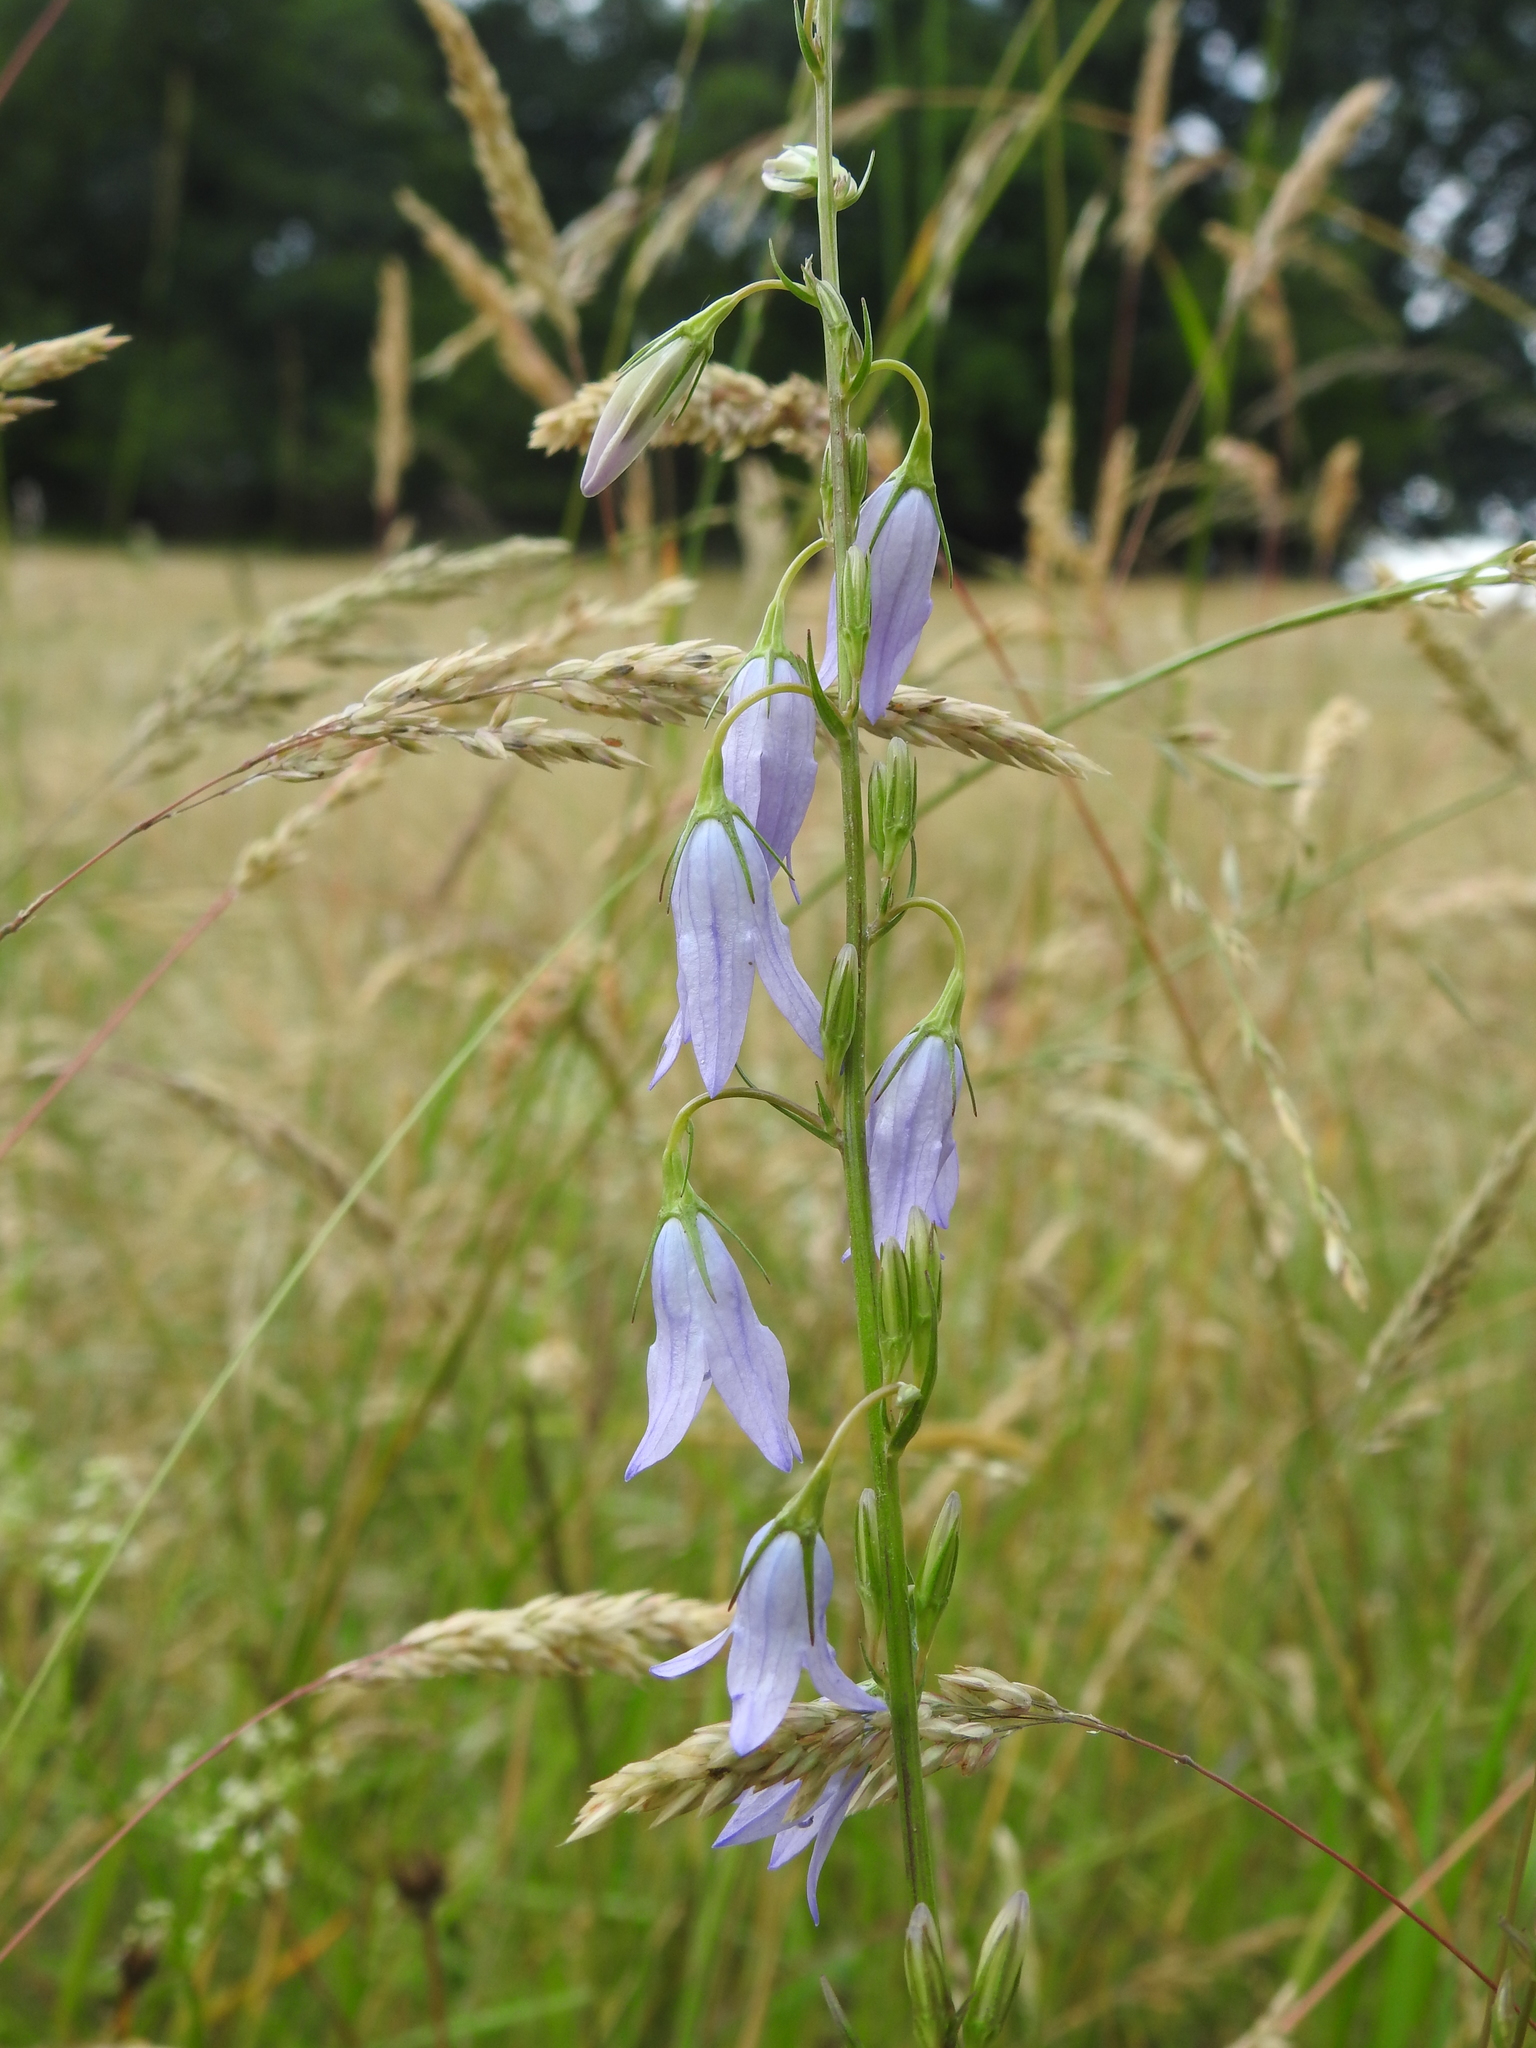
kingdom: Plantae
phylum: Tracheophyta
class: Magnoliopsida
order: Asterales
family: Campanulaceae
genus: Campanula
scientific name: Campanula rapunculus
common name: Rampion bellflower
